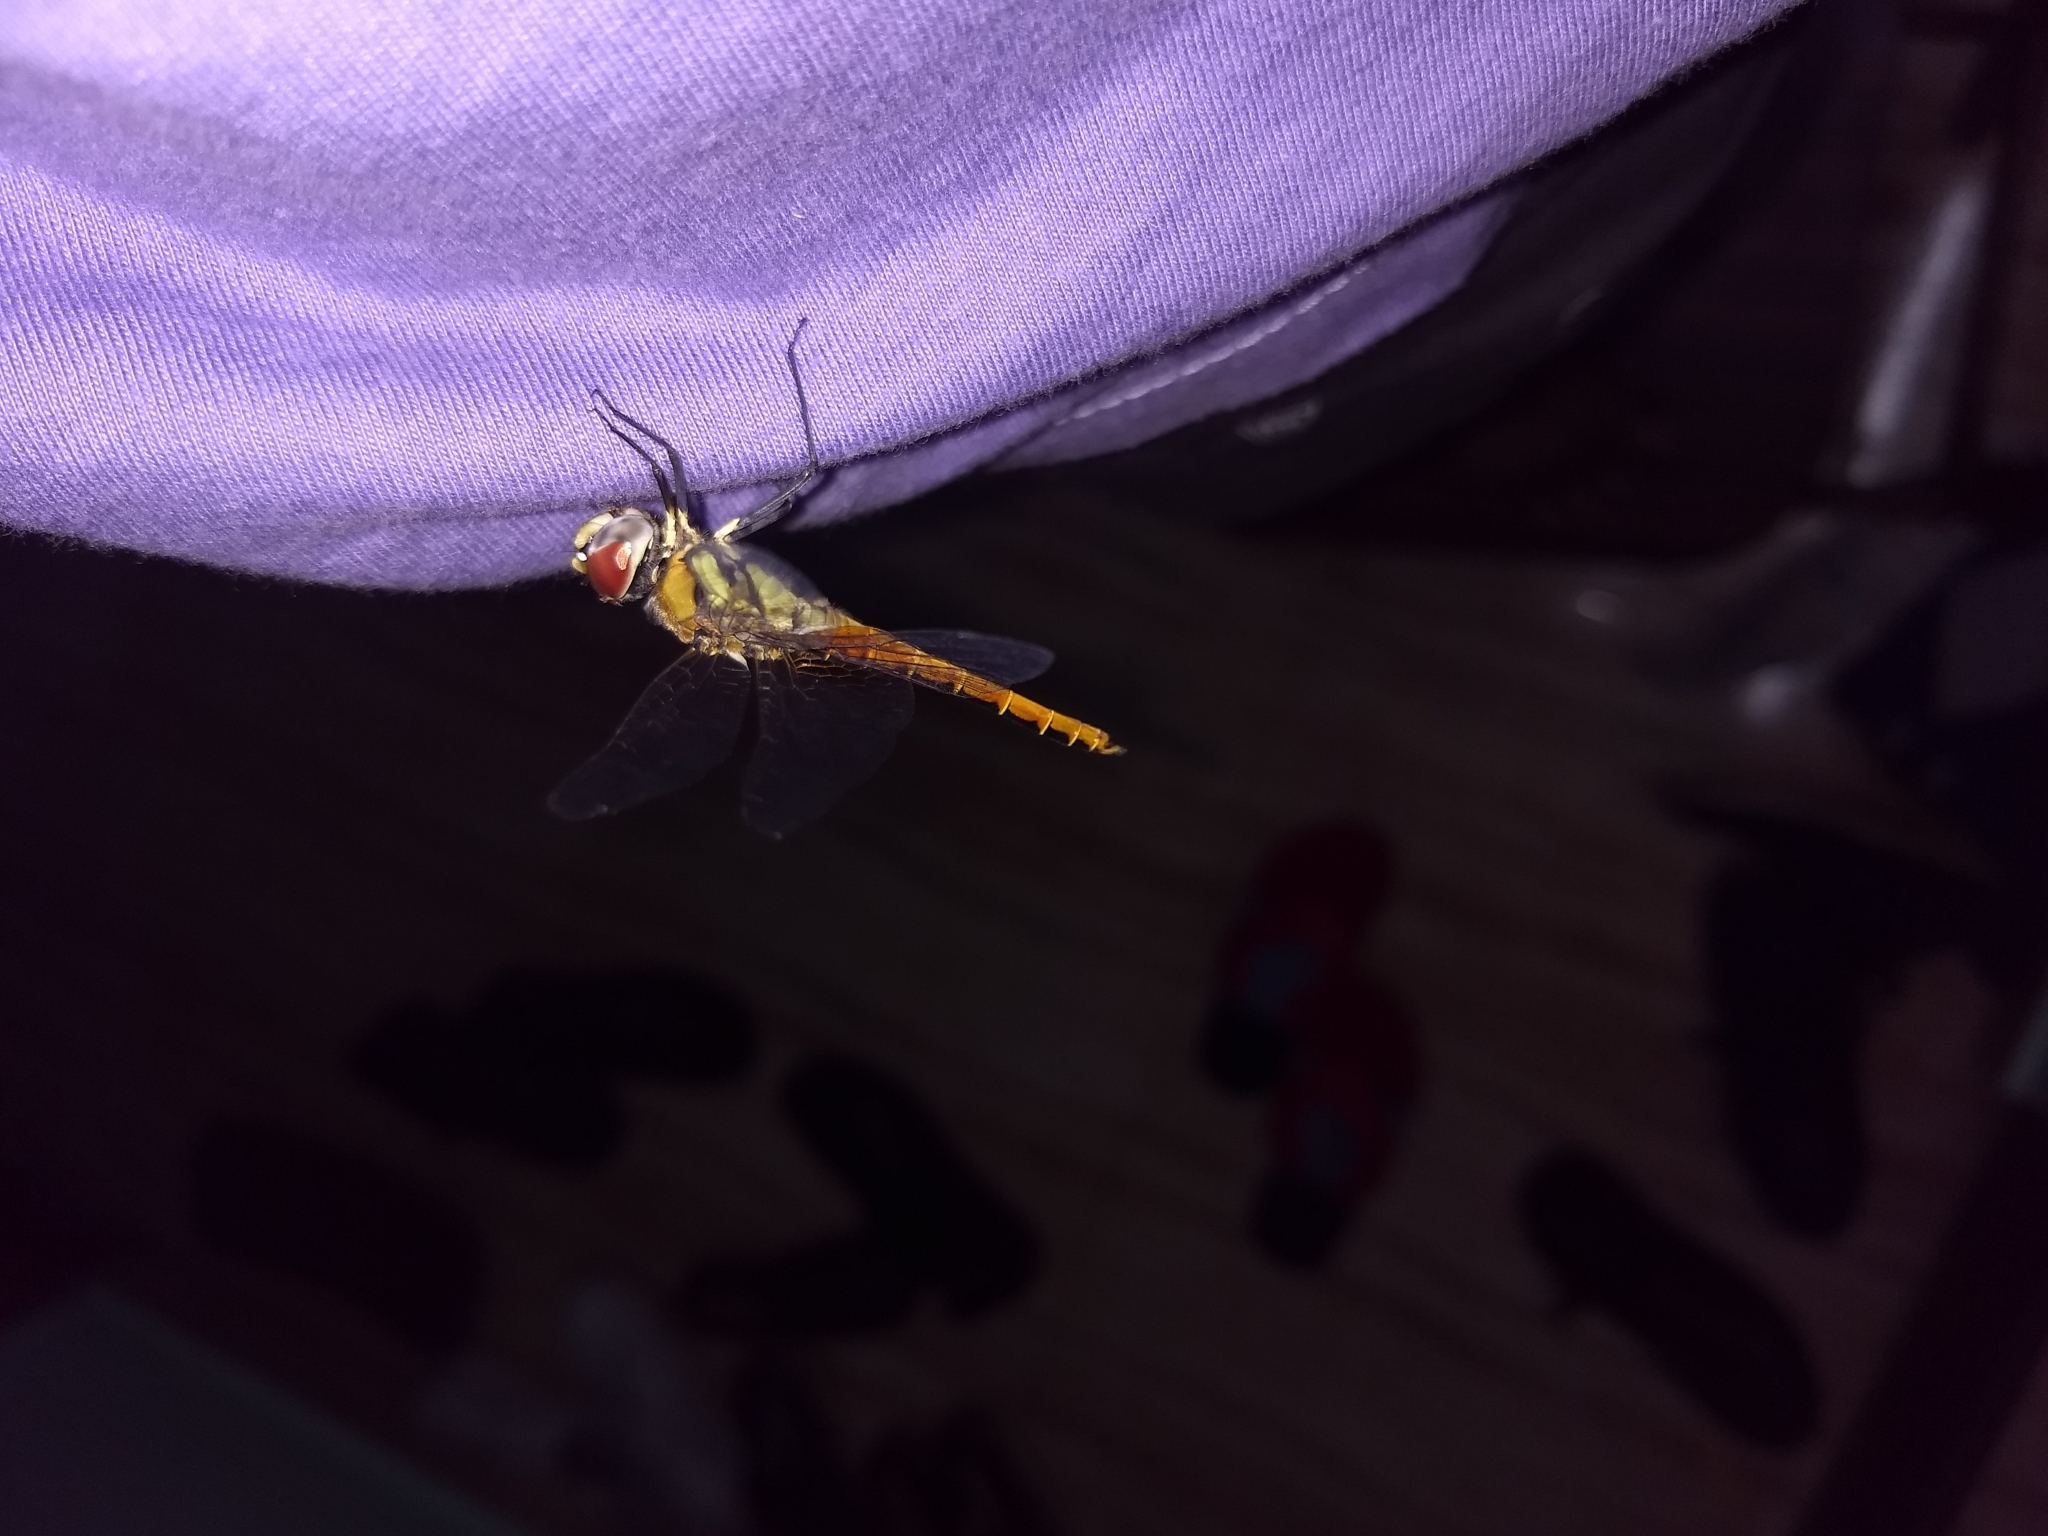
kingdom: Animalia
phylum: Arthropoda
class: Insecta
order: Odonata
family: Libellulidae
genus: Macrodiplax
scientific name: Macrodiplax cora
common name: Coastal glider
